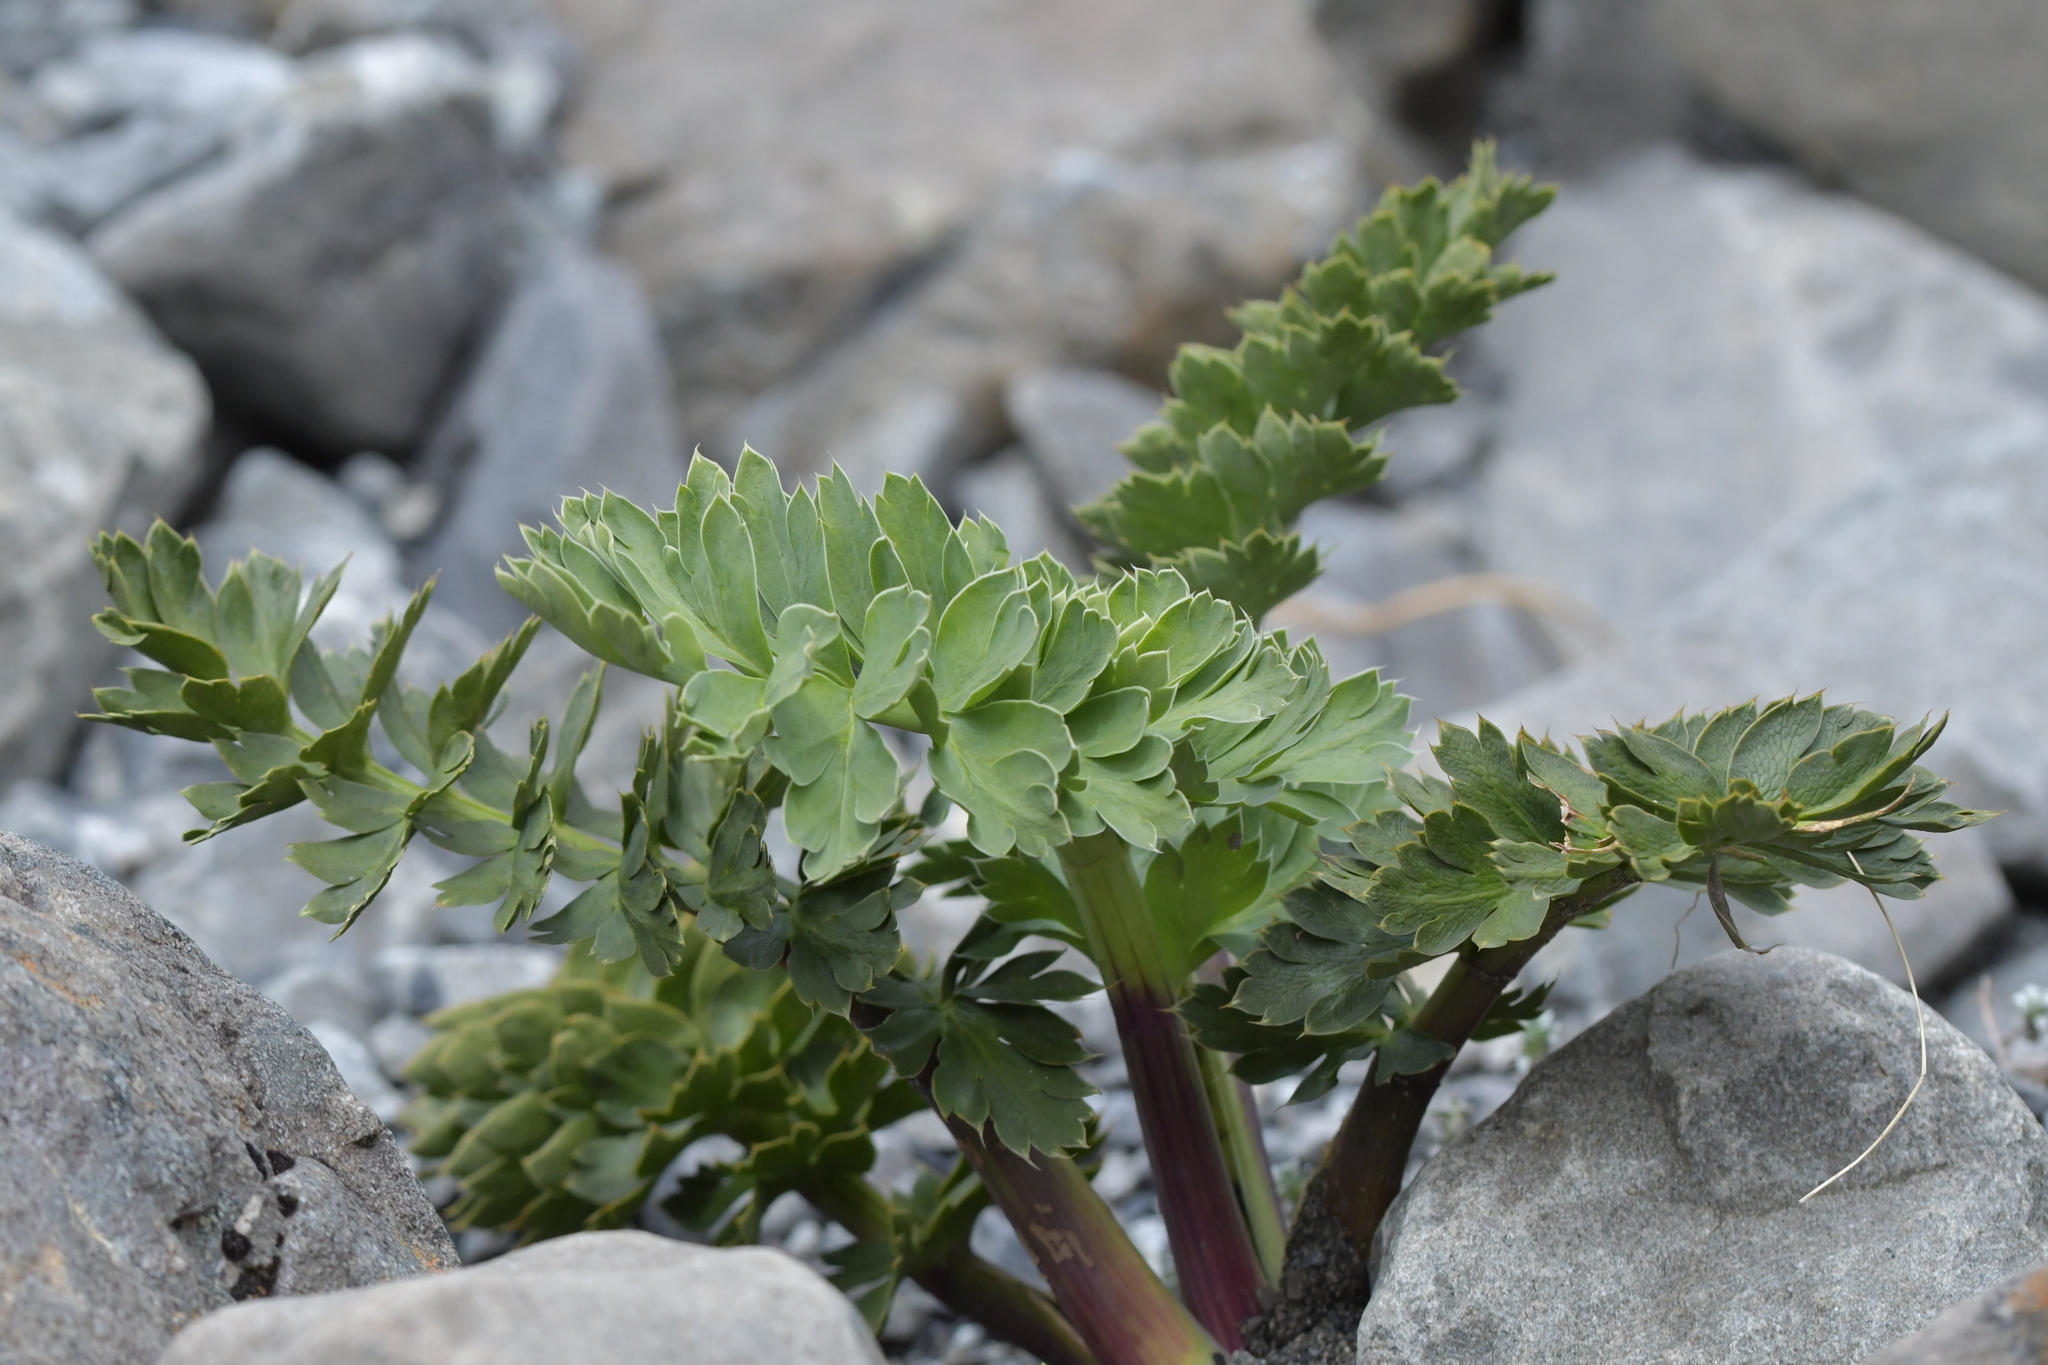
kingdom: Plantae
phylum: Tracheophyta
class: Magnoliopsida
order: Apiales
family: Apiaceae
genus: Anisotome
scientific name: Anisotome pilifera
